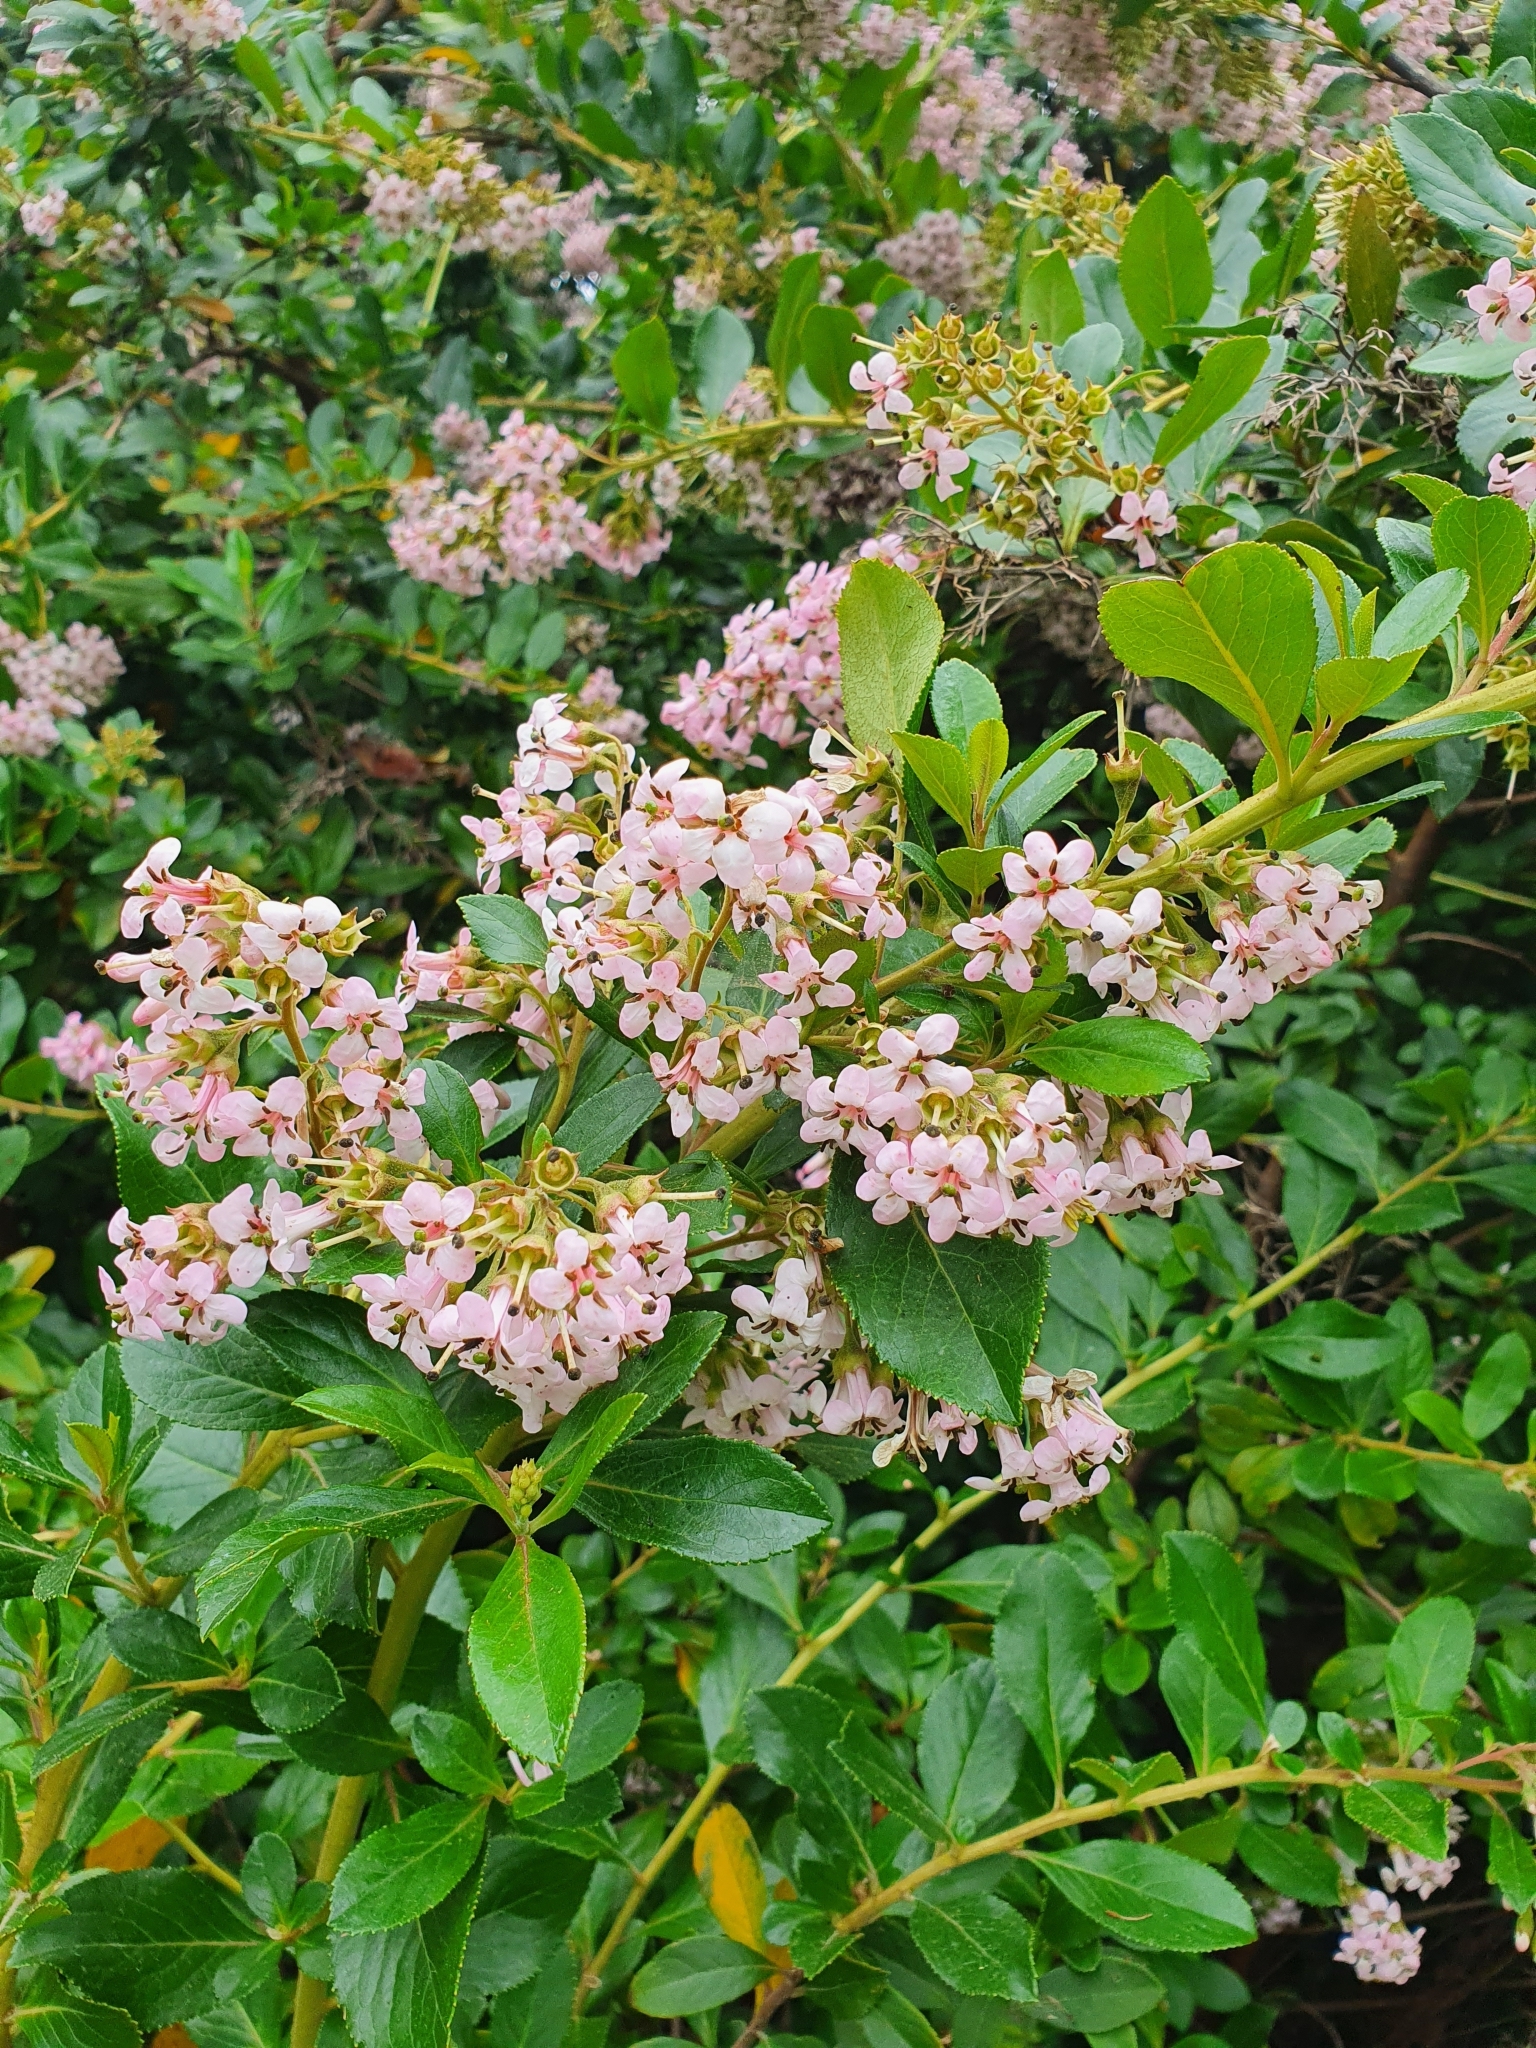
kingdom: Plantae
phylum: Tracheophyta
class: Magnoliopsida
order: Escalloniales
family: Escalloniaceae
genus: Escallonia
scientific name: Escallonia rubra
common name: Redclaws
